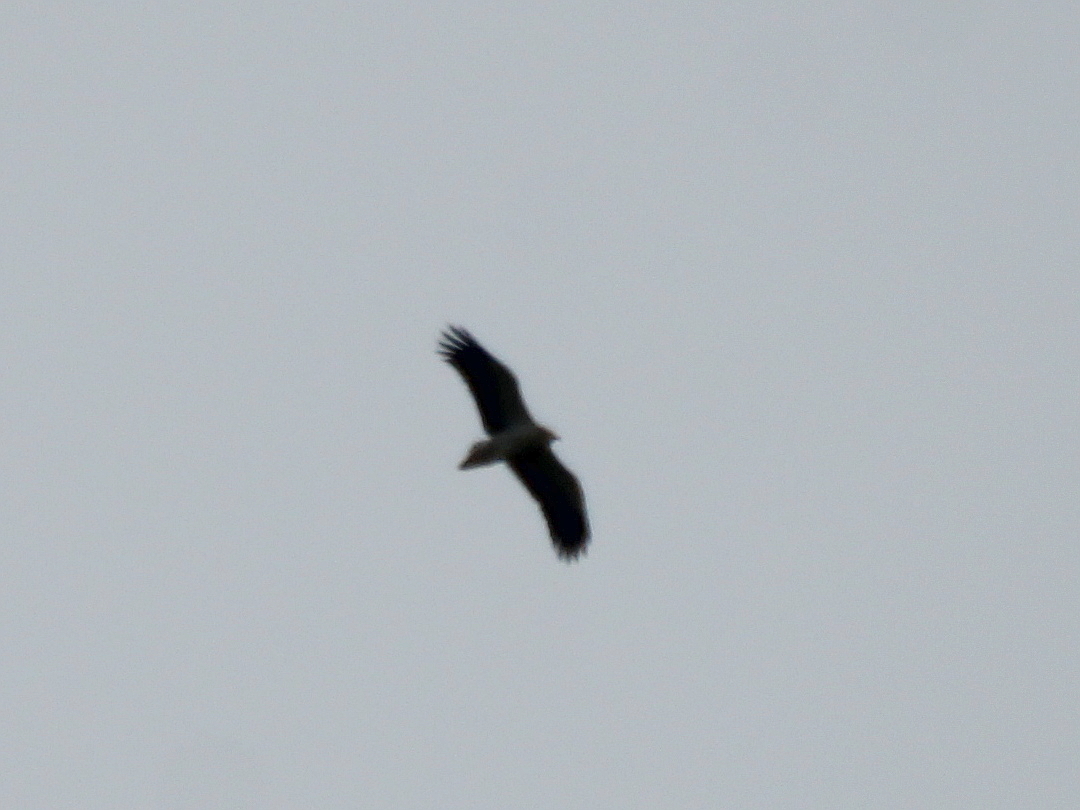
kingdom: Animalia
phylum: Chordata
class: Aves
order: Accipitriformes
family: Accipitridae
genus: Neophron
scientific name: Neophron percnopterus
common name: Egyptian vulture
